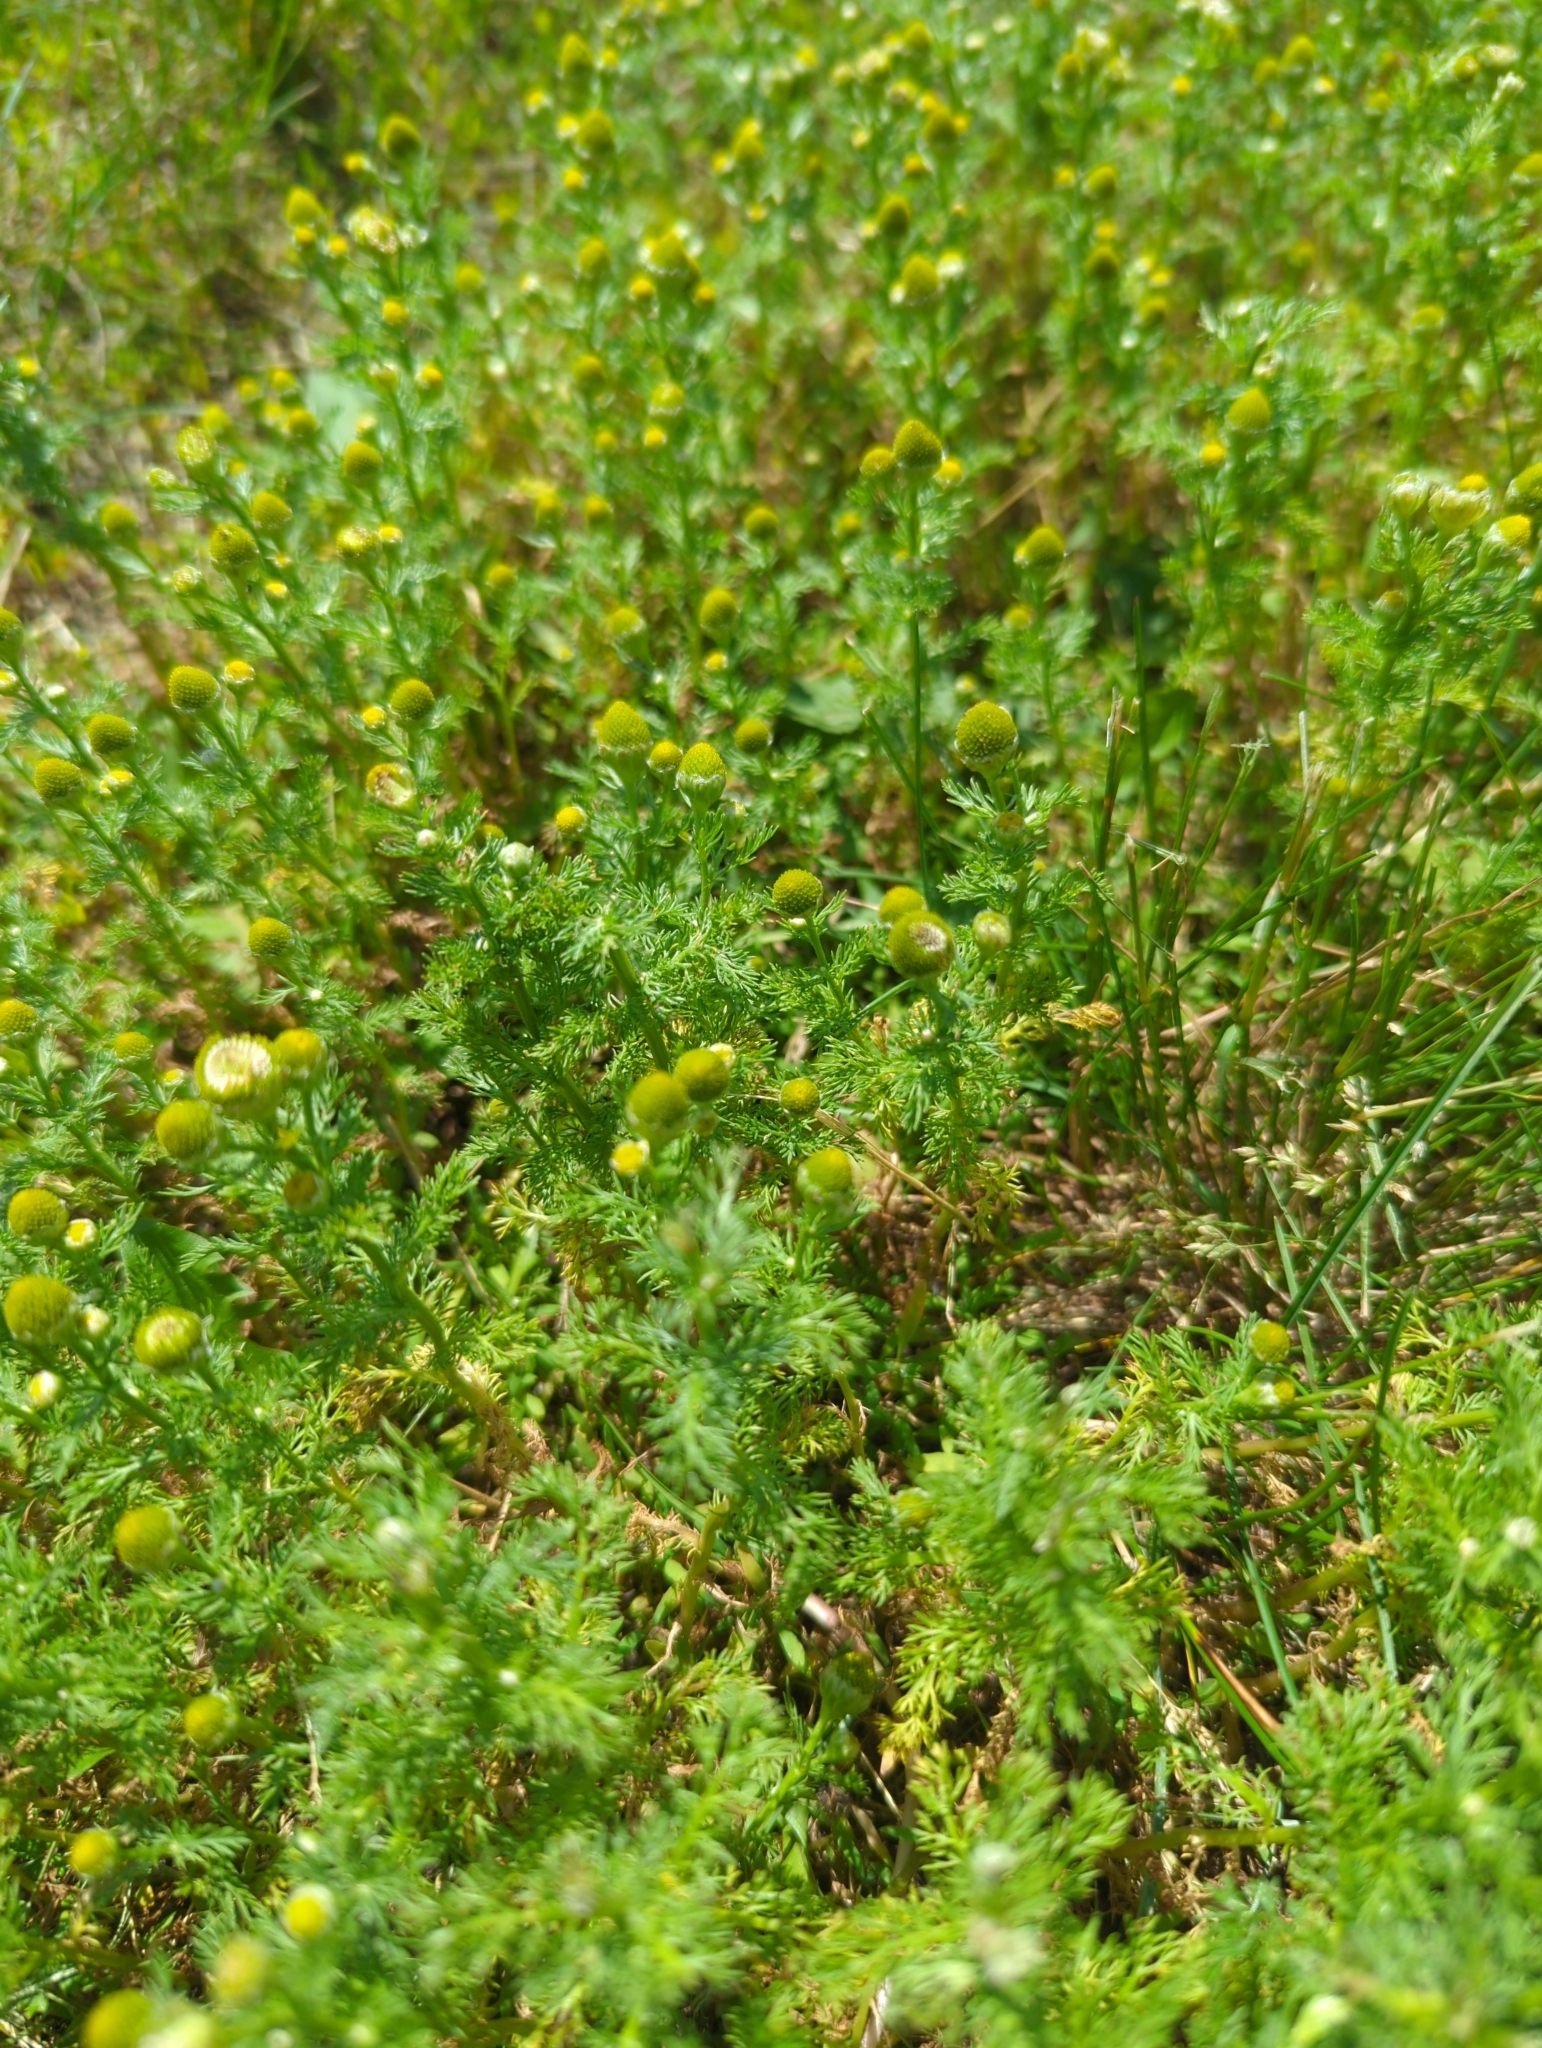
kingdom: Plantae
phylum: Tracheophyta
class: Magnoliopsida
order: Asterales
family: Asteraceae
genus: Matricaria
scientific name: Matricaria discoidea
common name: Disc mayweed
